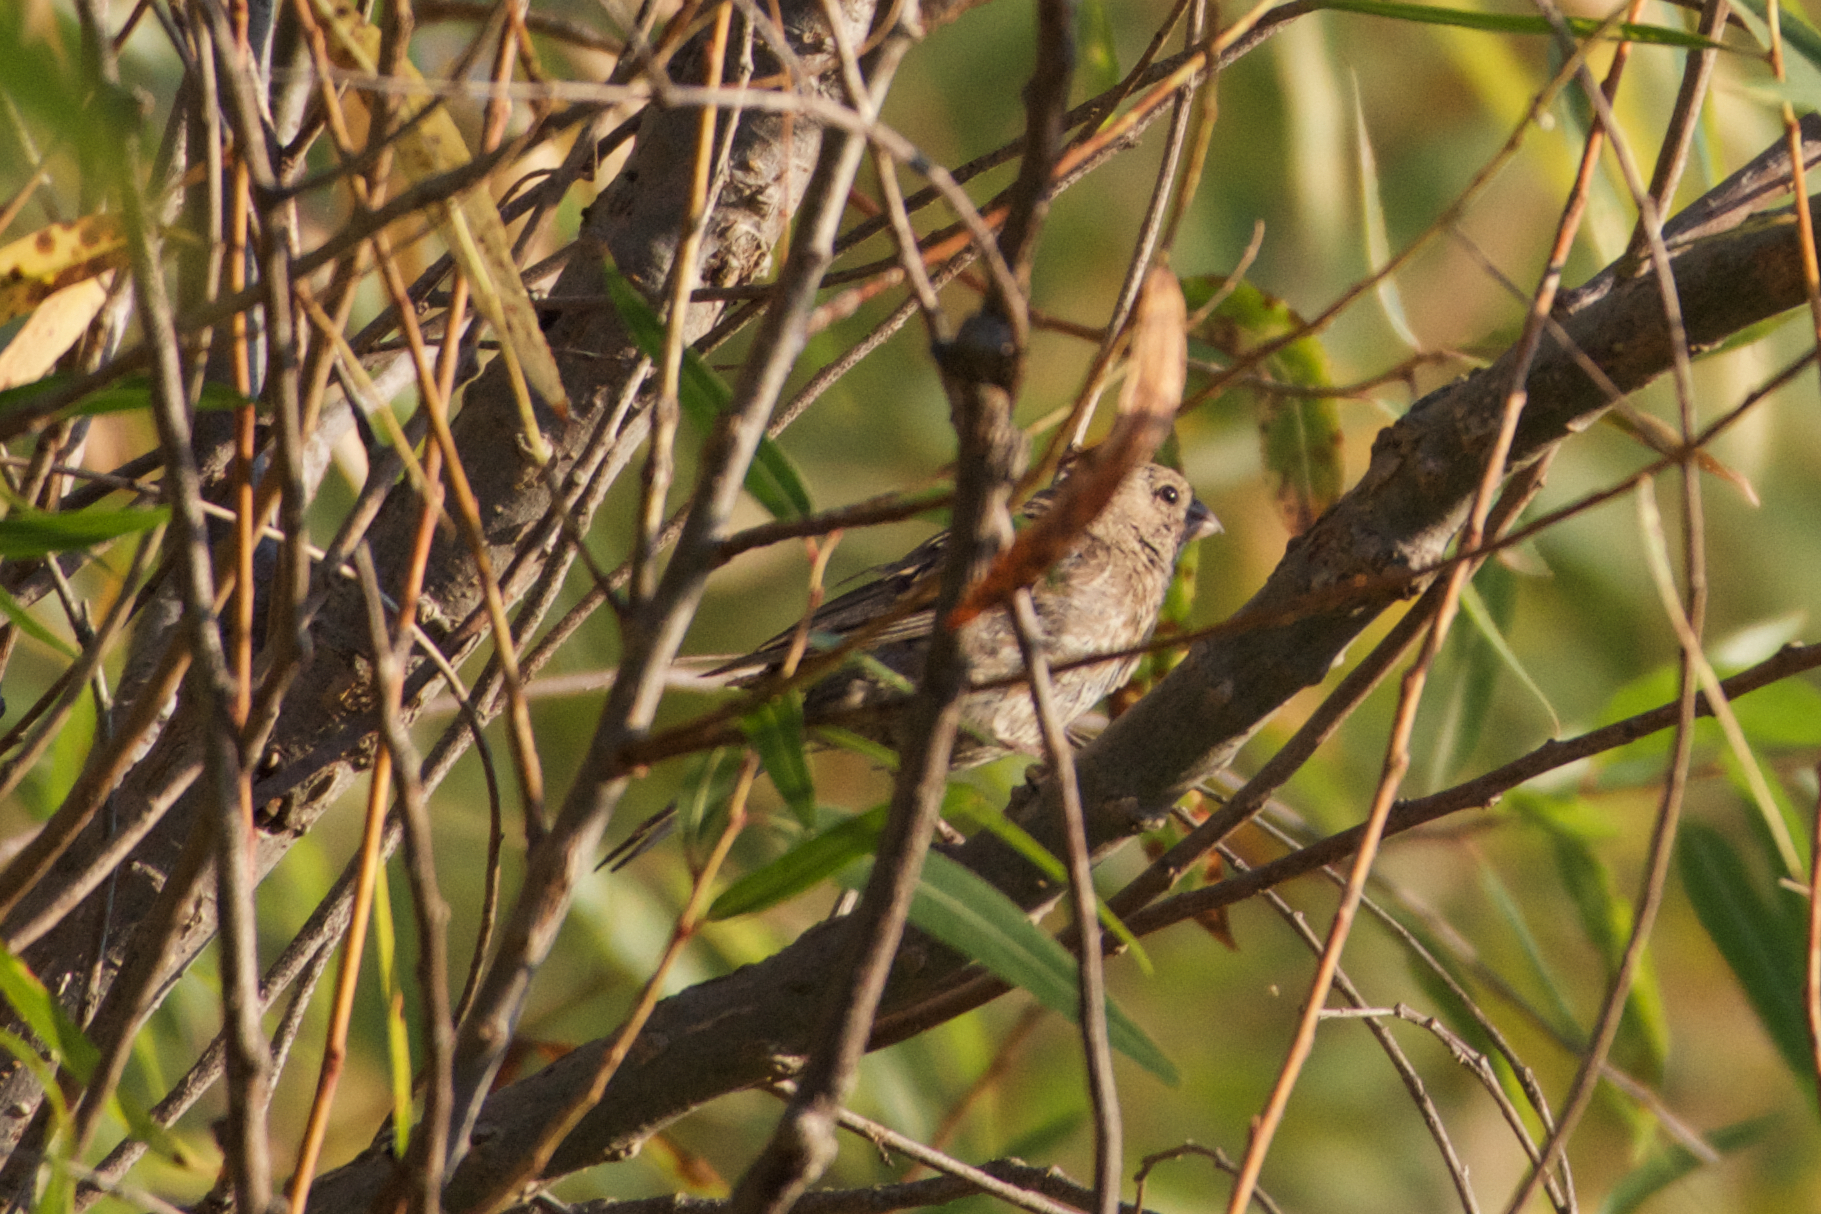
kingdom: Animalia
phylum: Chordata
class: Aves
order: Passeriformes
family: Fringillidae
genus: Haemorhous
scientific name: Haemorhous mexicanus
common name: House finch
